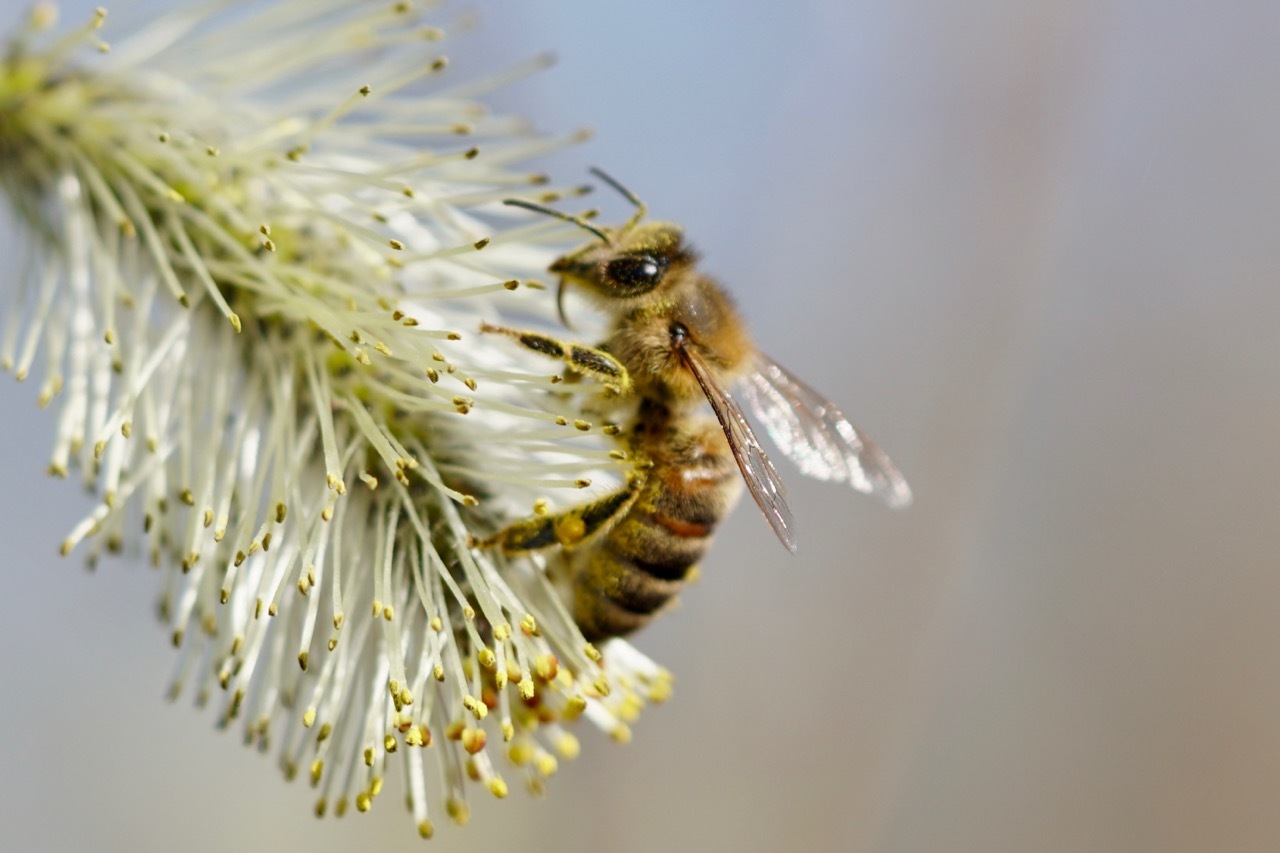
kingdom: Animalia
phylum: Arthropoda
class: Insecta
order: Hymenoptera
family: Apidae
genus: Apis
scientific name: Apis mellifera
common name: Honey bee
